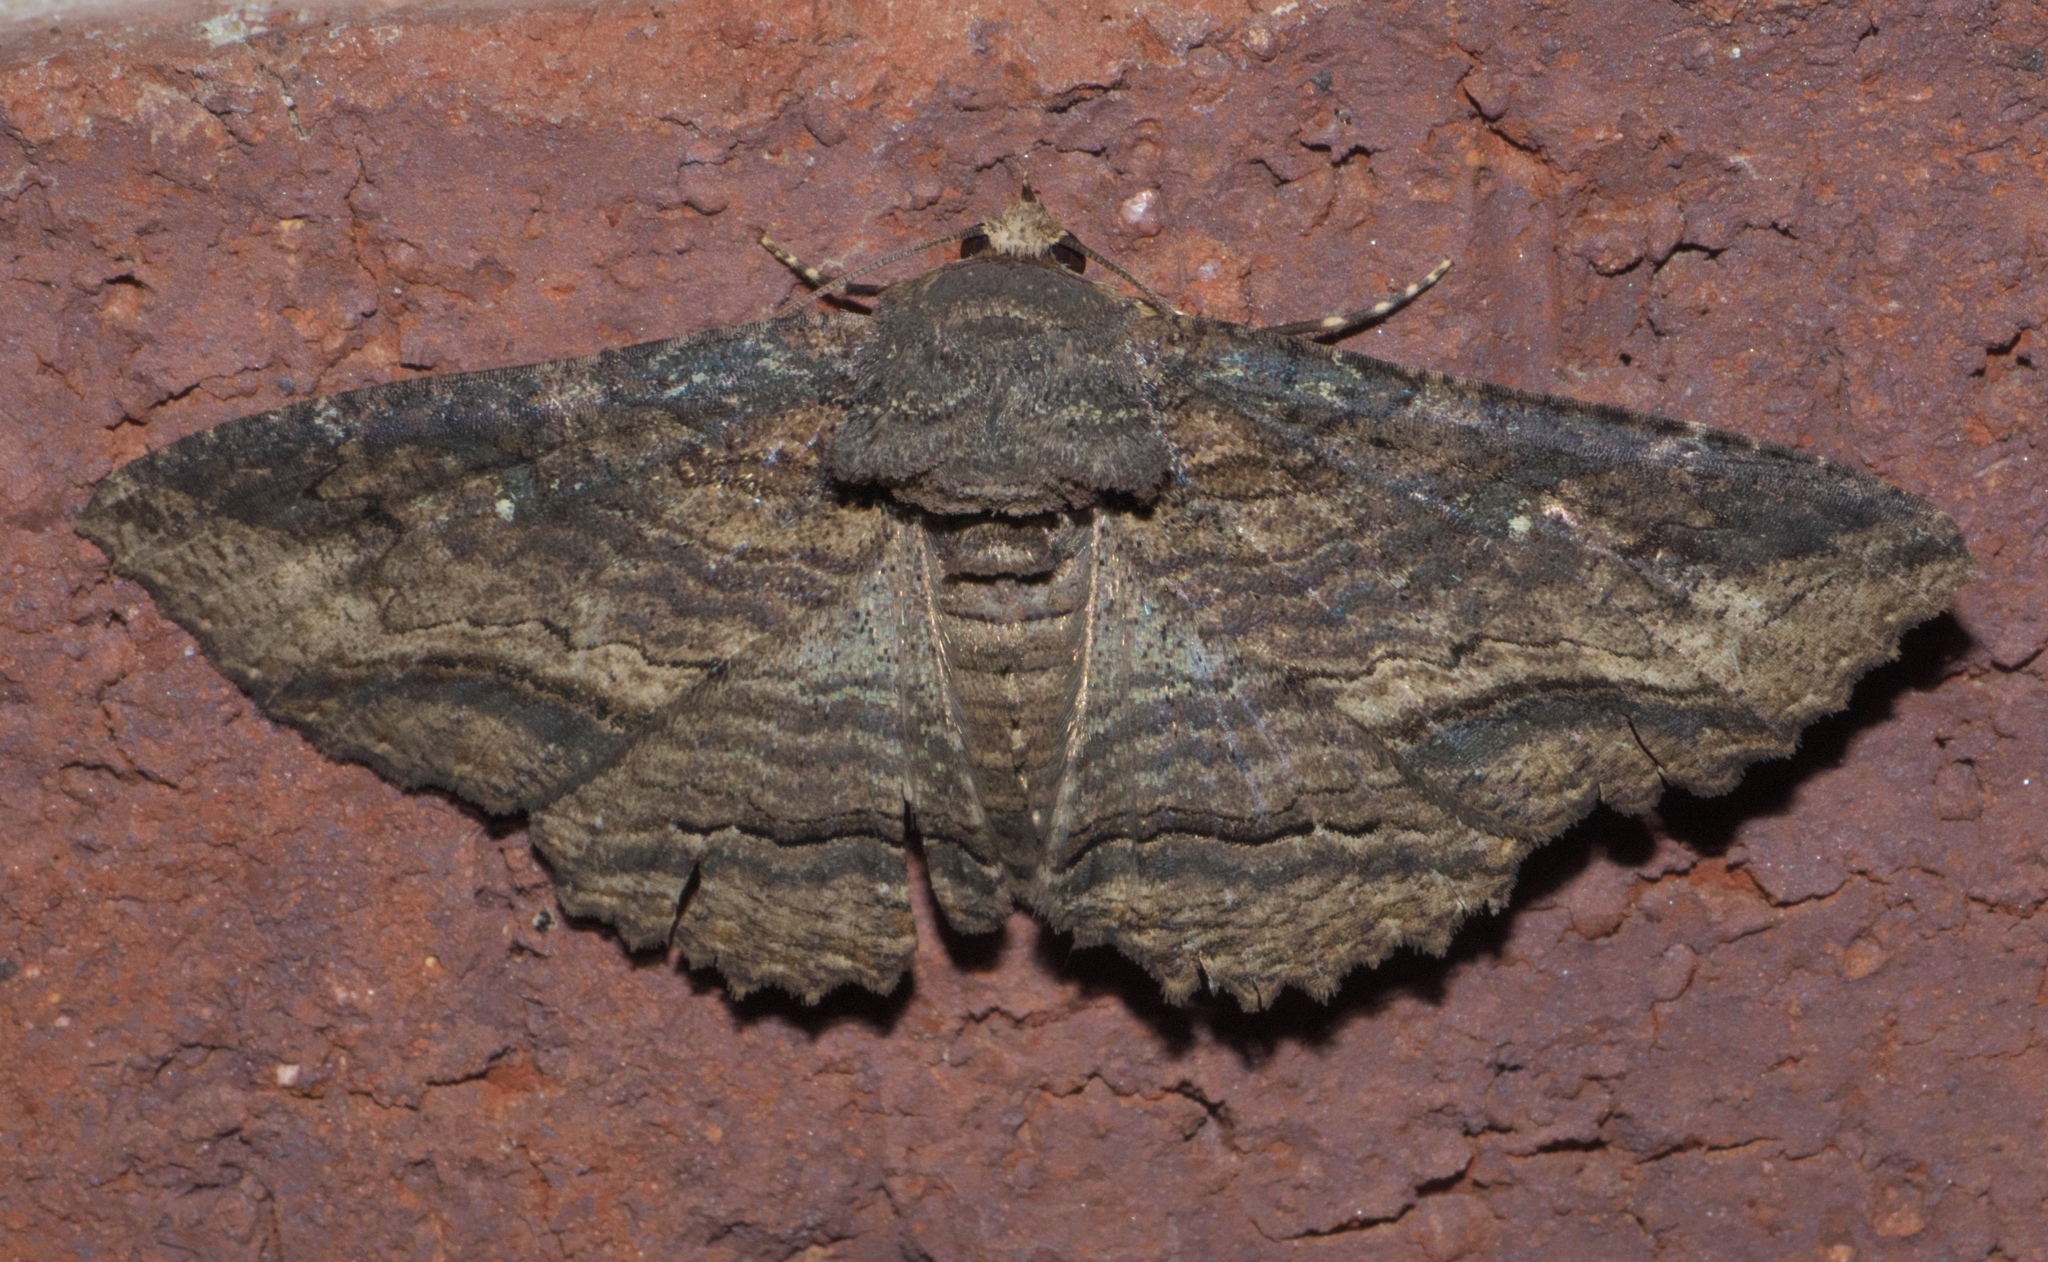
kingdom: Animalia
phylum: Arthropoda
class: Insecta
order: Lepidoptera
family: Erebidae
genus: Zale
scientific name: Zale lunata
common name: Lunate zale moth
